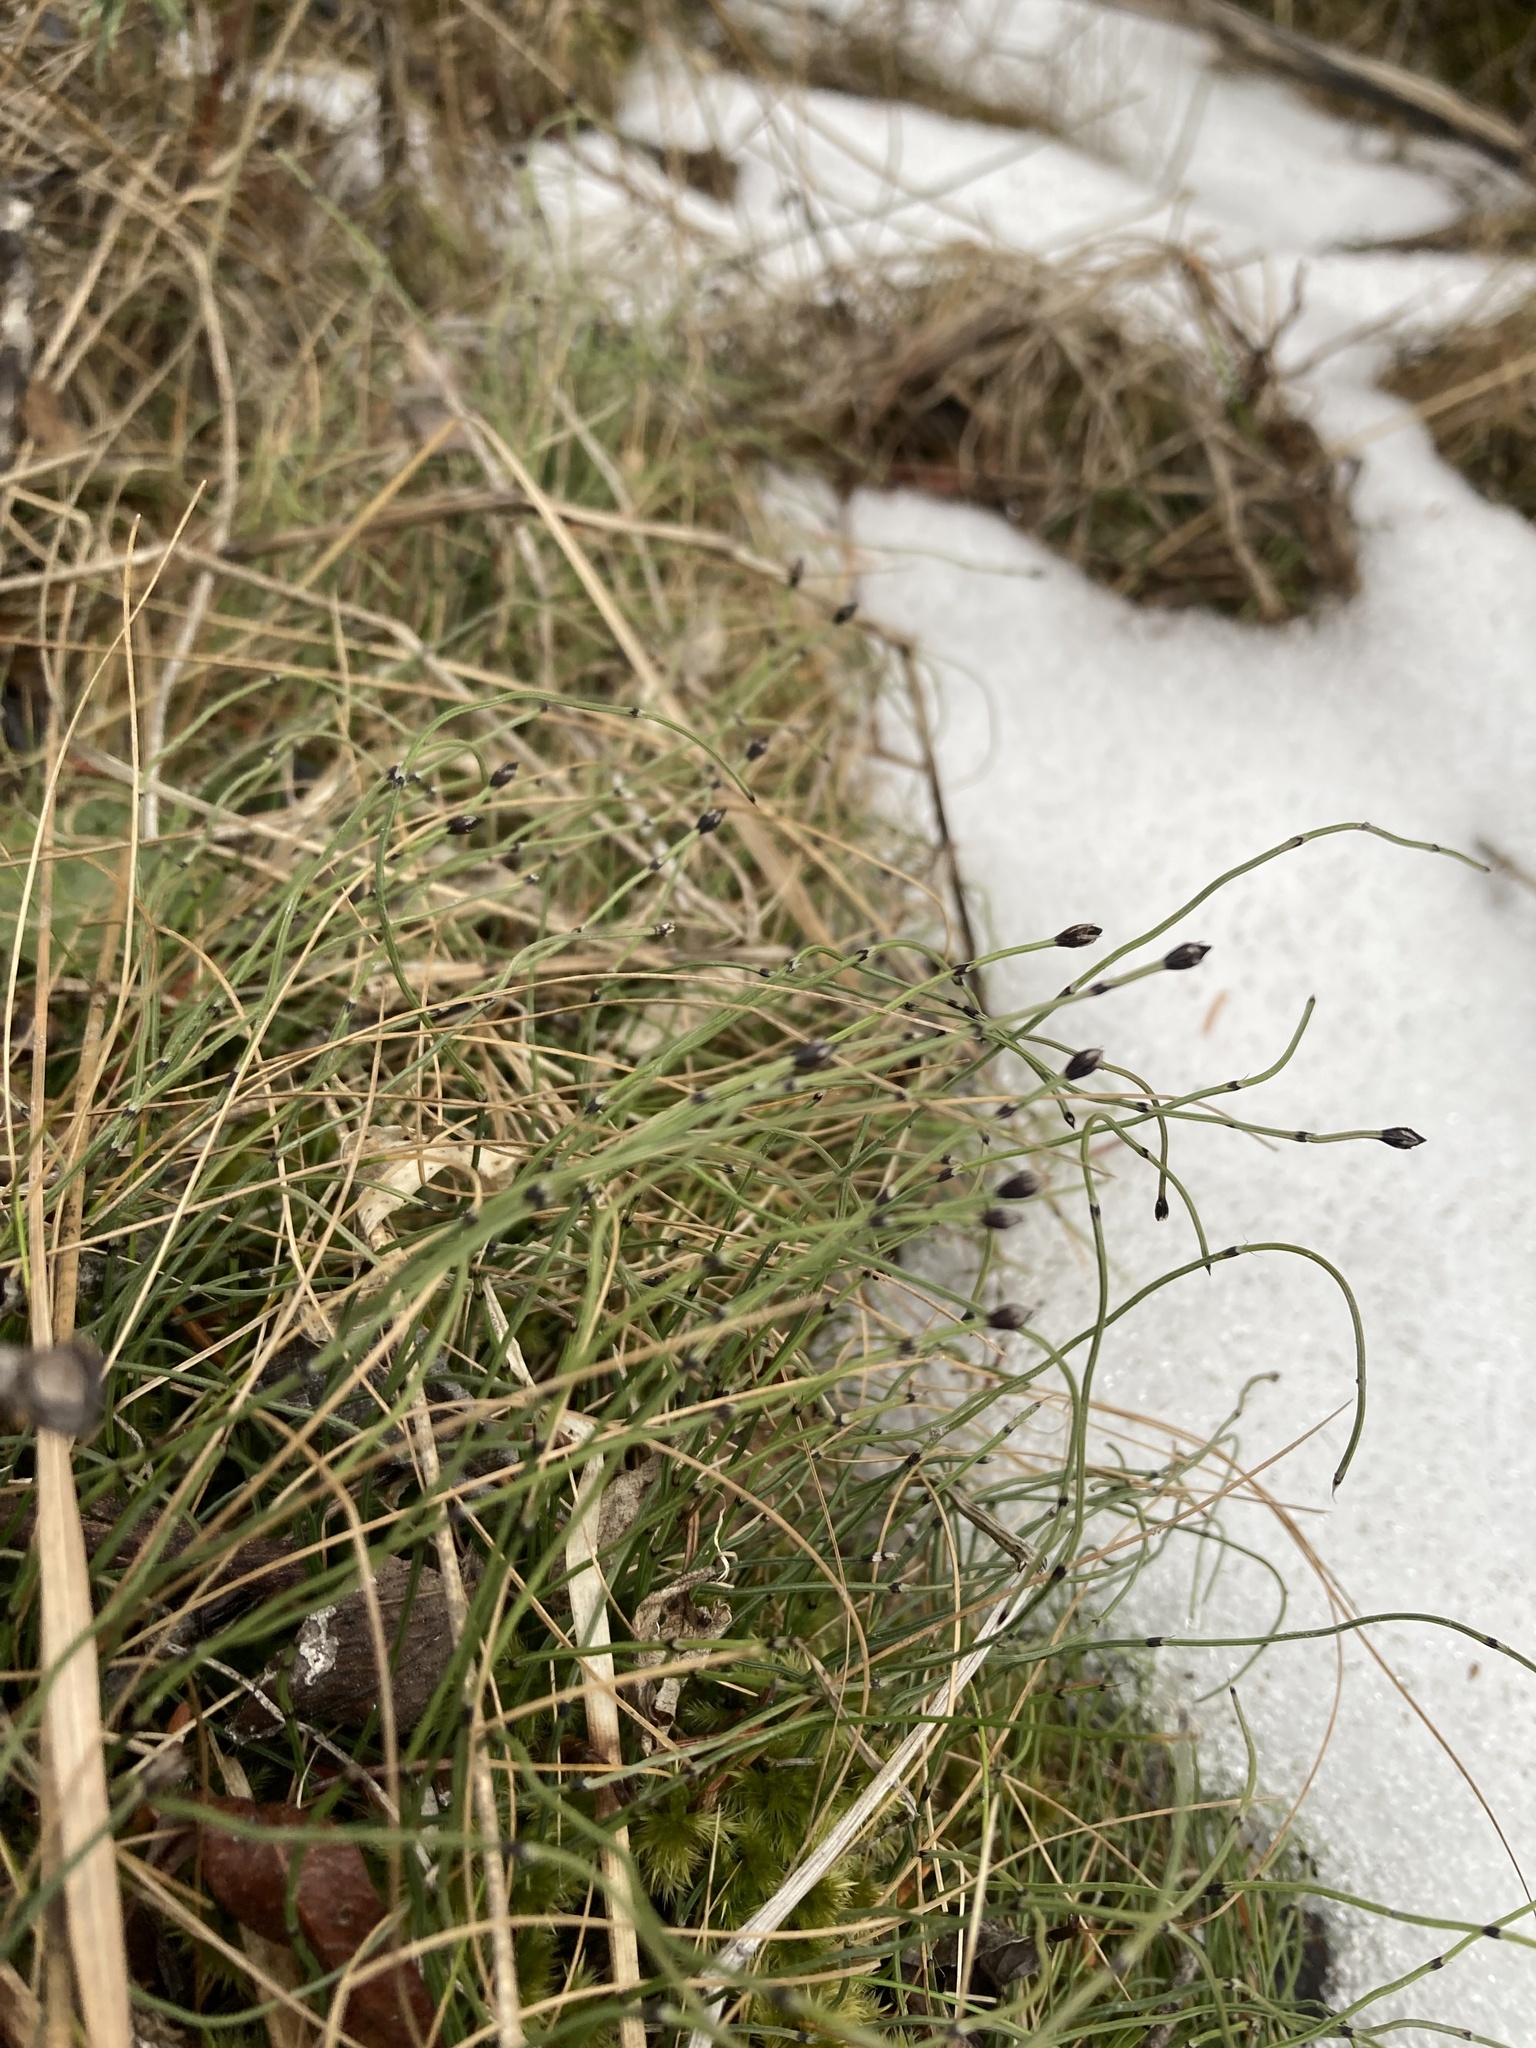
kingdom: Plantae
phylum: Tracheophyta
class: Polypodiopsida
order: Equisetales
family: Equisetaceae
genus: Equisetum
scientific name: Equisetum scirpoides
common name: Delicate horsetail
